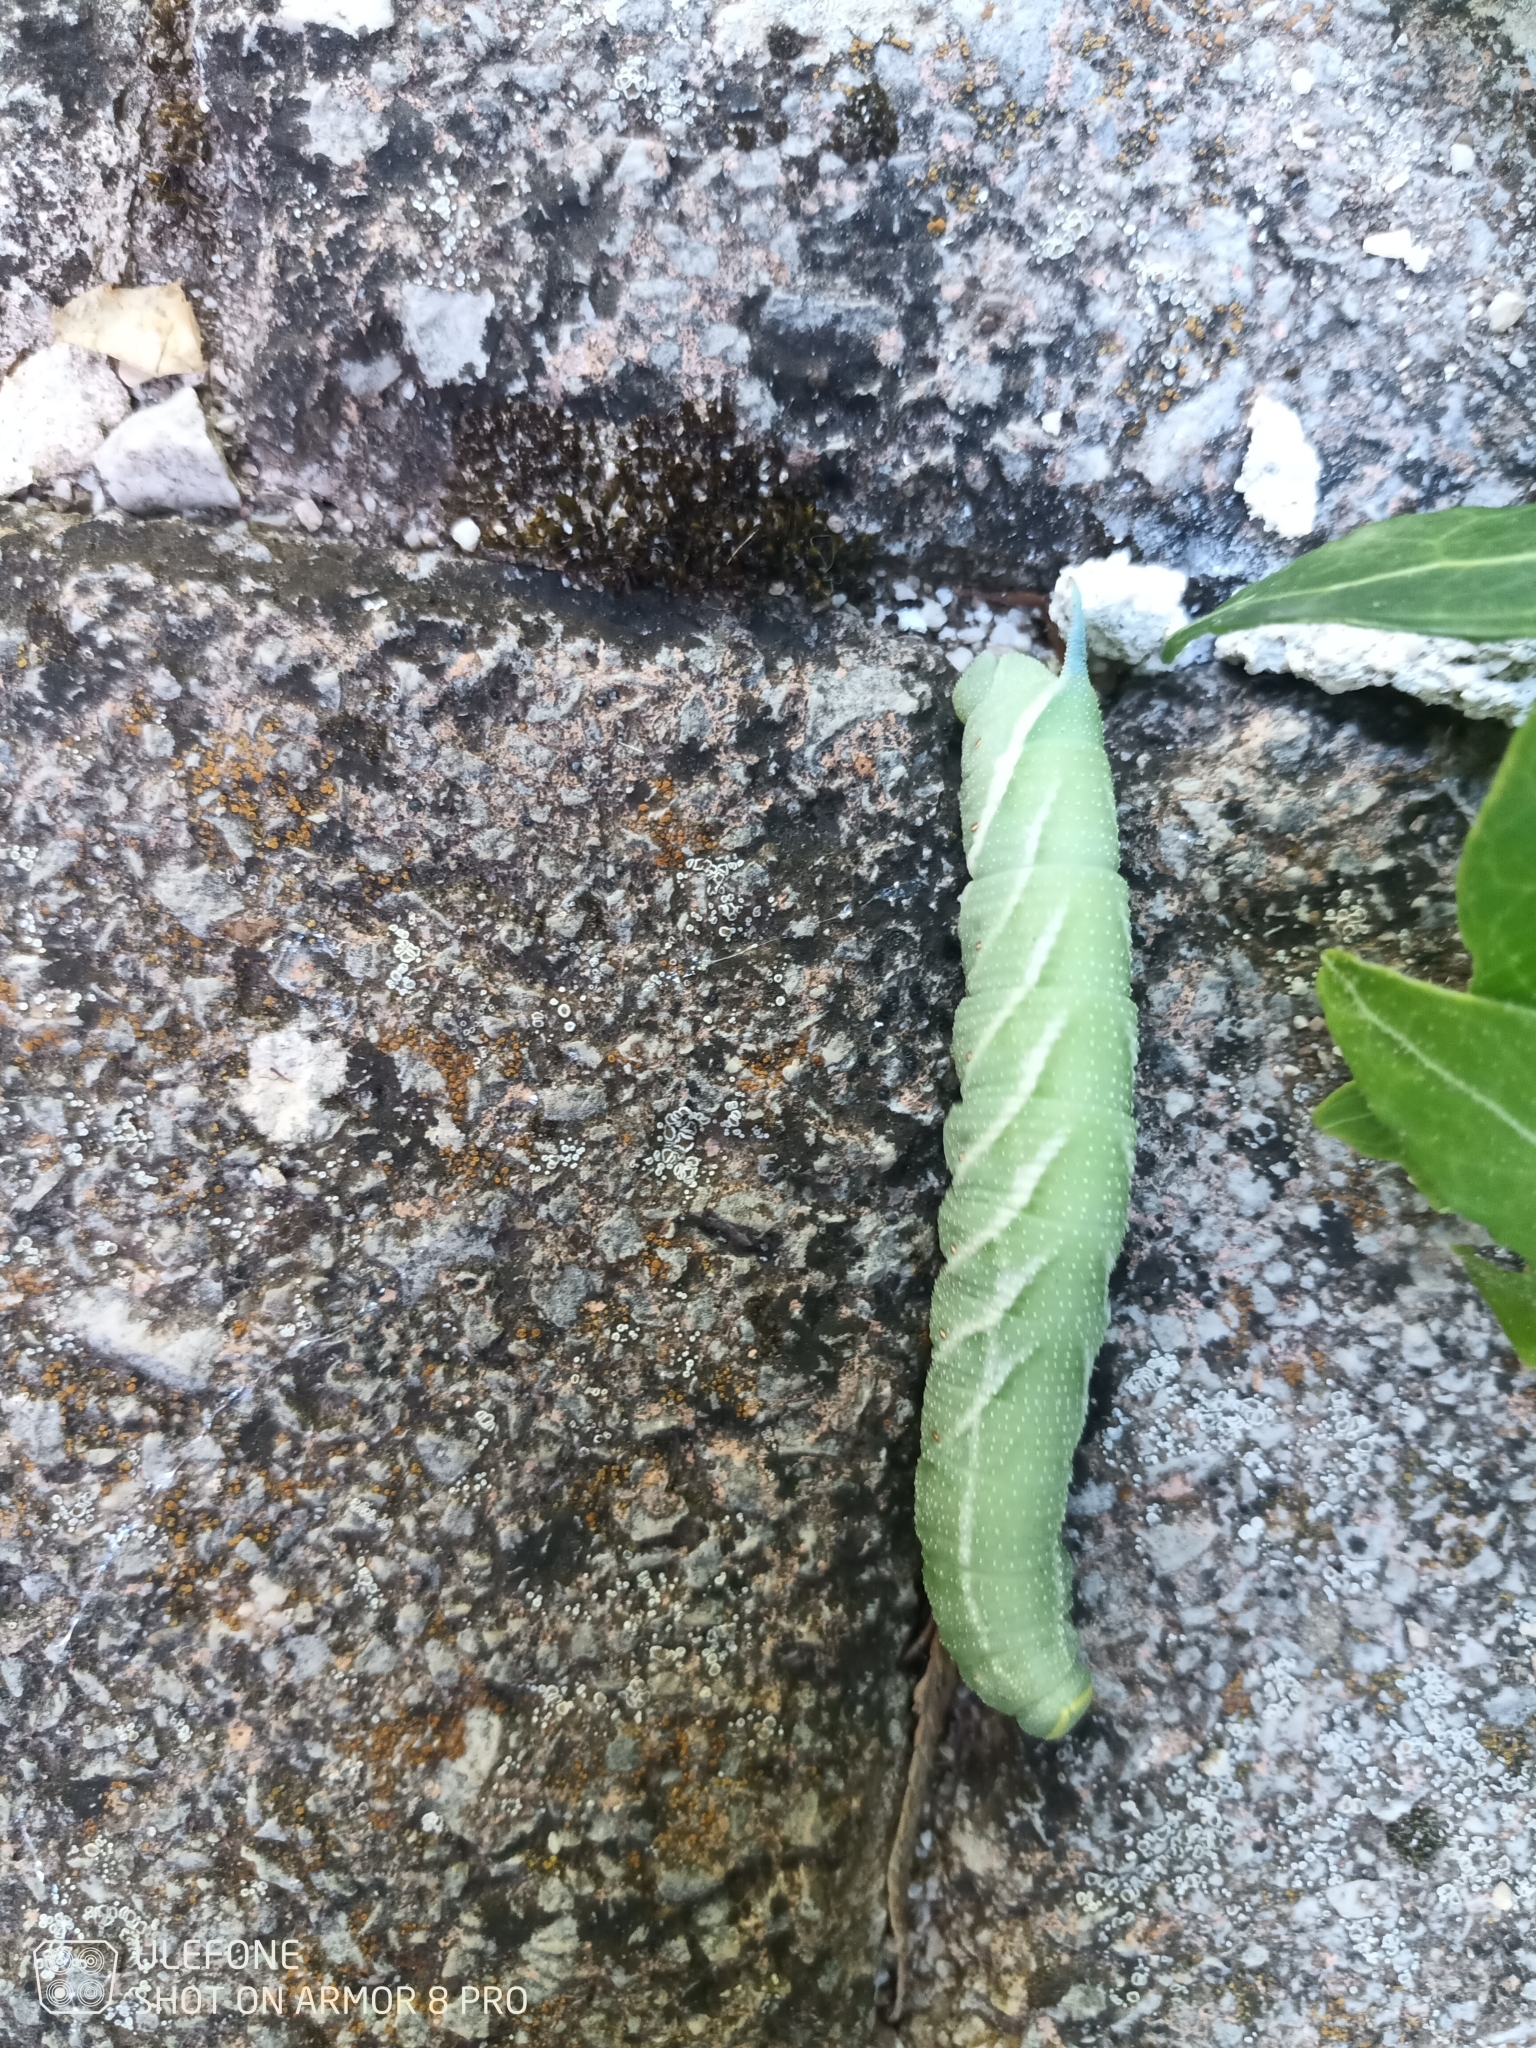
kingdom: Animalia
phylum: Arthropoda
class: Insecta
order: Lepidoptera
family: Sphingidae
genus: Smerinthus
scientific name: Smerinthus ocellata
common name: Eyed hawk-moth
